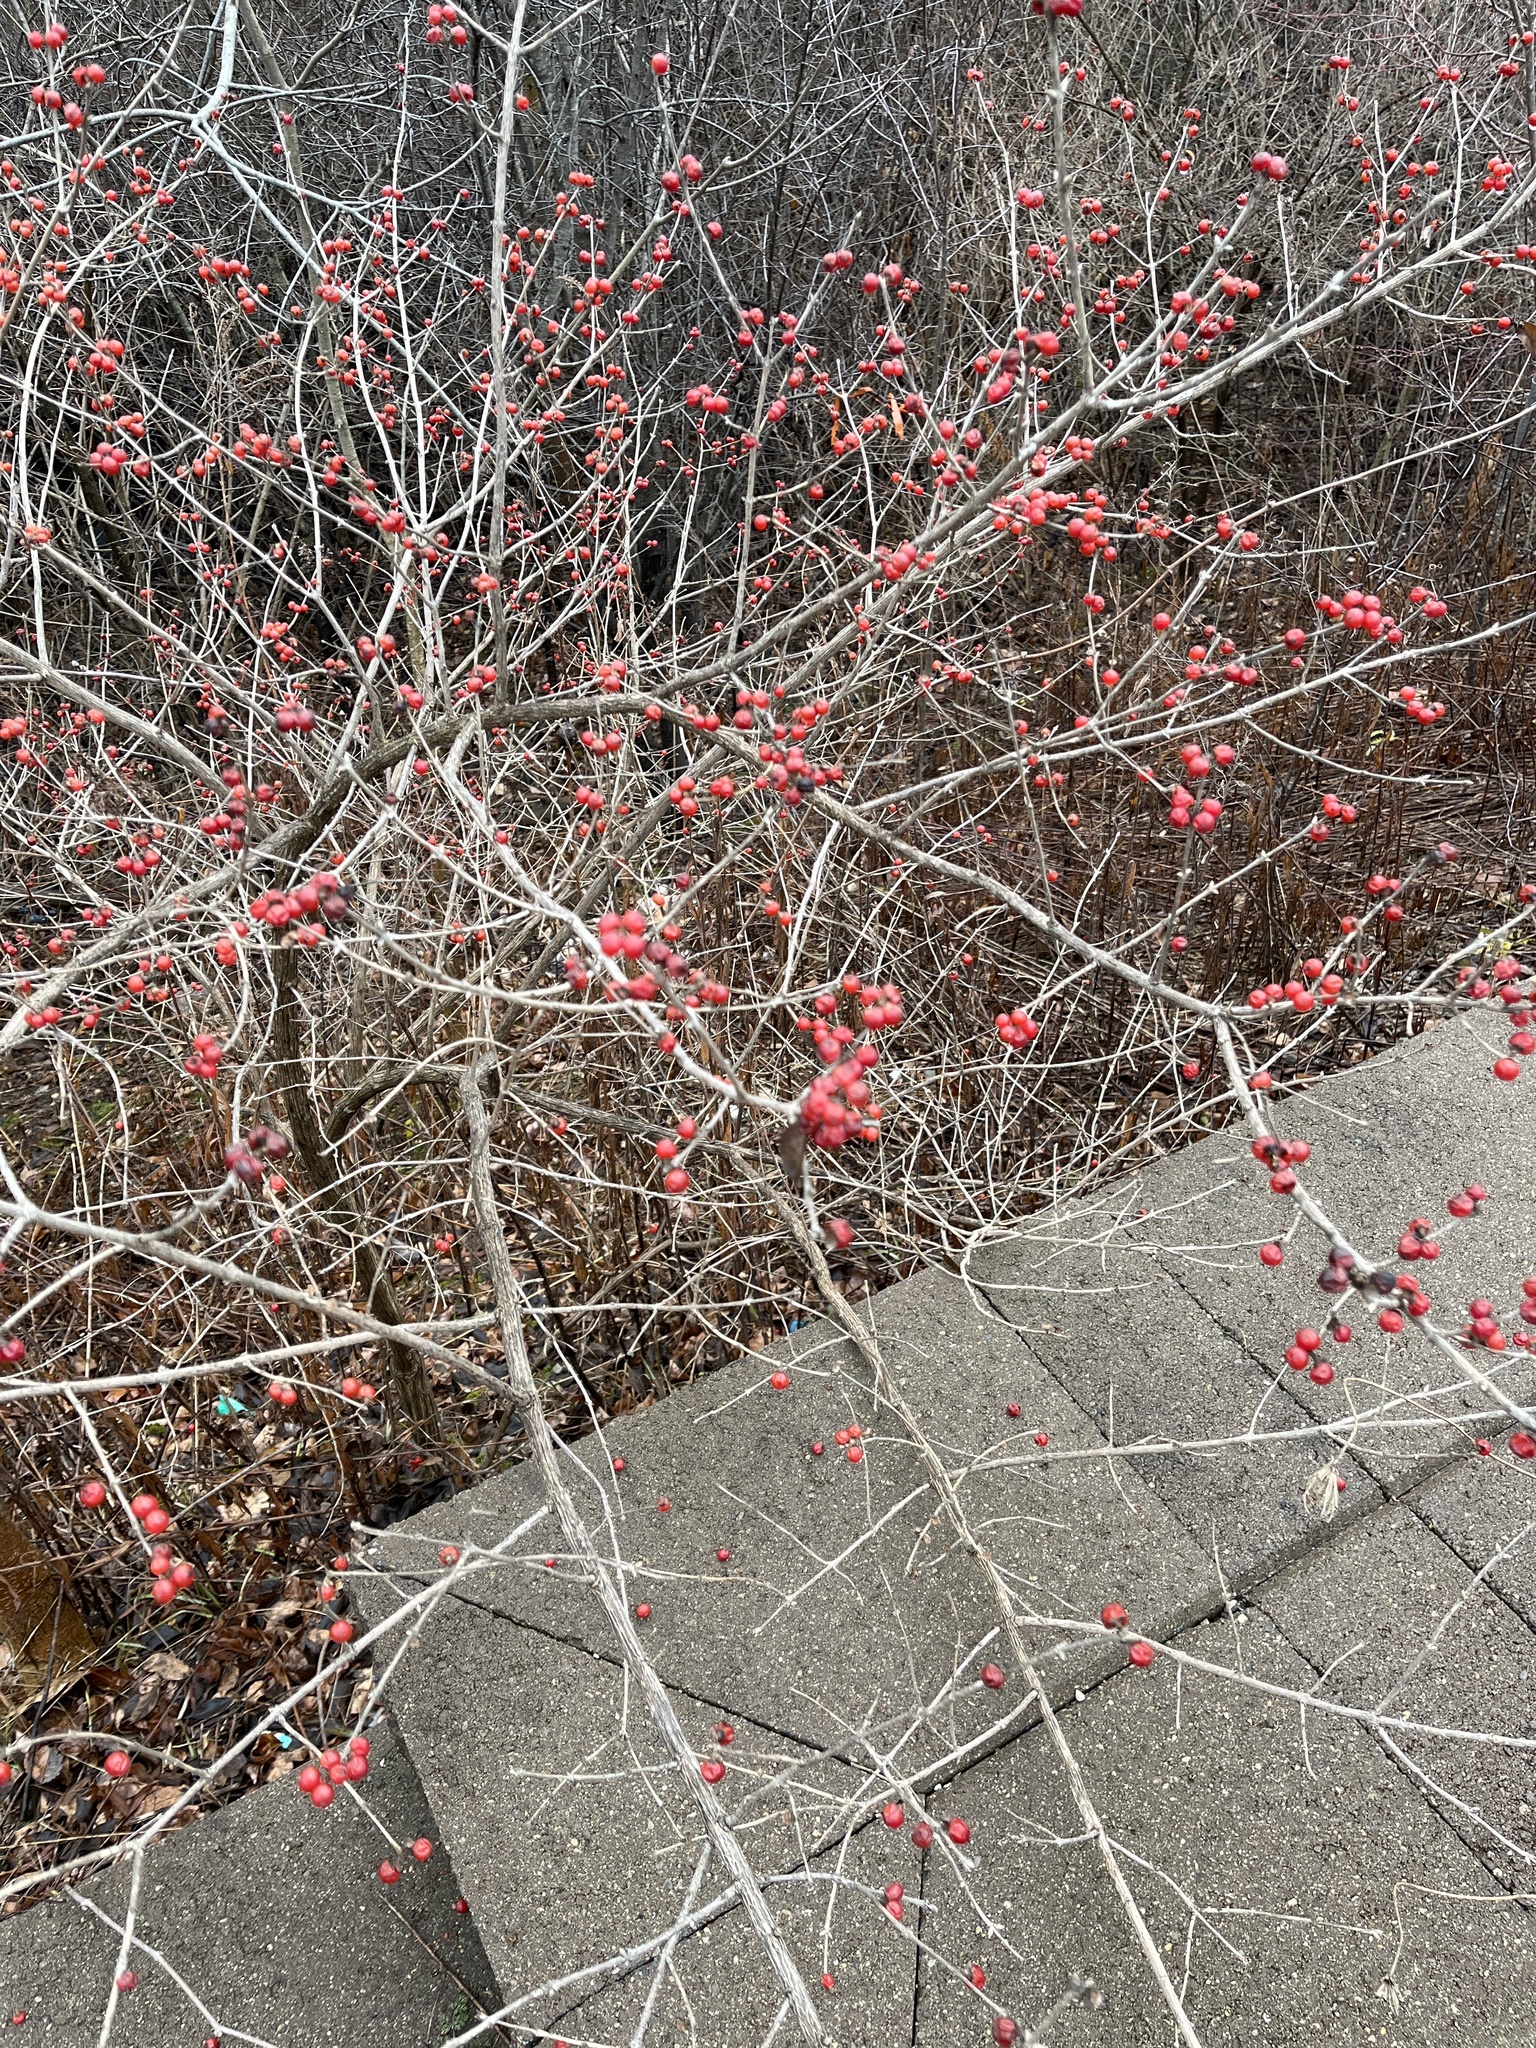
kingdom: Plantae
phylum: Tracheophyta
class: Magnoliopsida
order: Dipsacales
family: Caprifoliaceae
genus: Lonicera
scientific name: Lonicera maackii
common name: Amur honeysuckle
